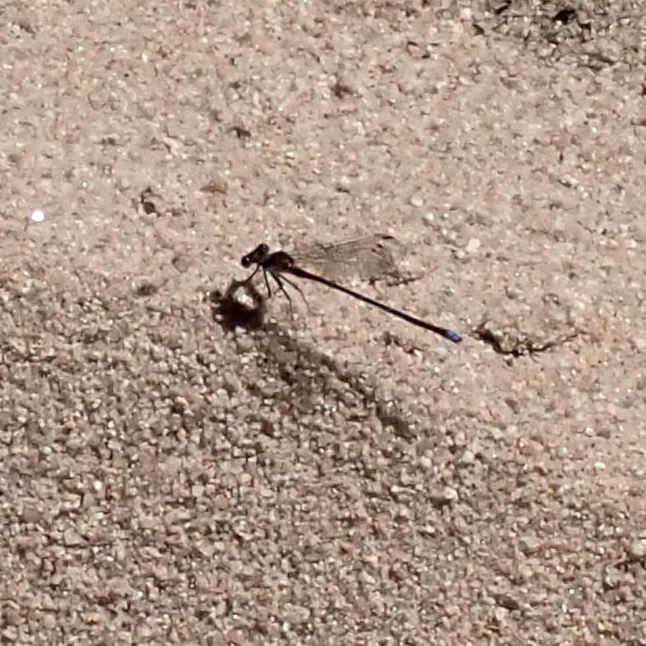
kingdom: Animalia
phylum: Arthropoda
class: Insecta
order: Odonata
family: Coenagrionidae
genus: Argia
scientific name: Argia tibialis
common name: Blue-tipped dancer
